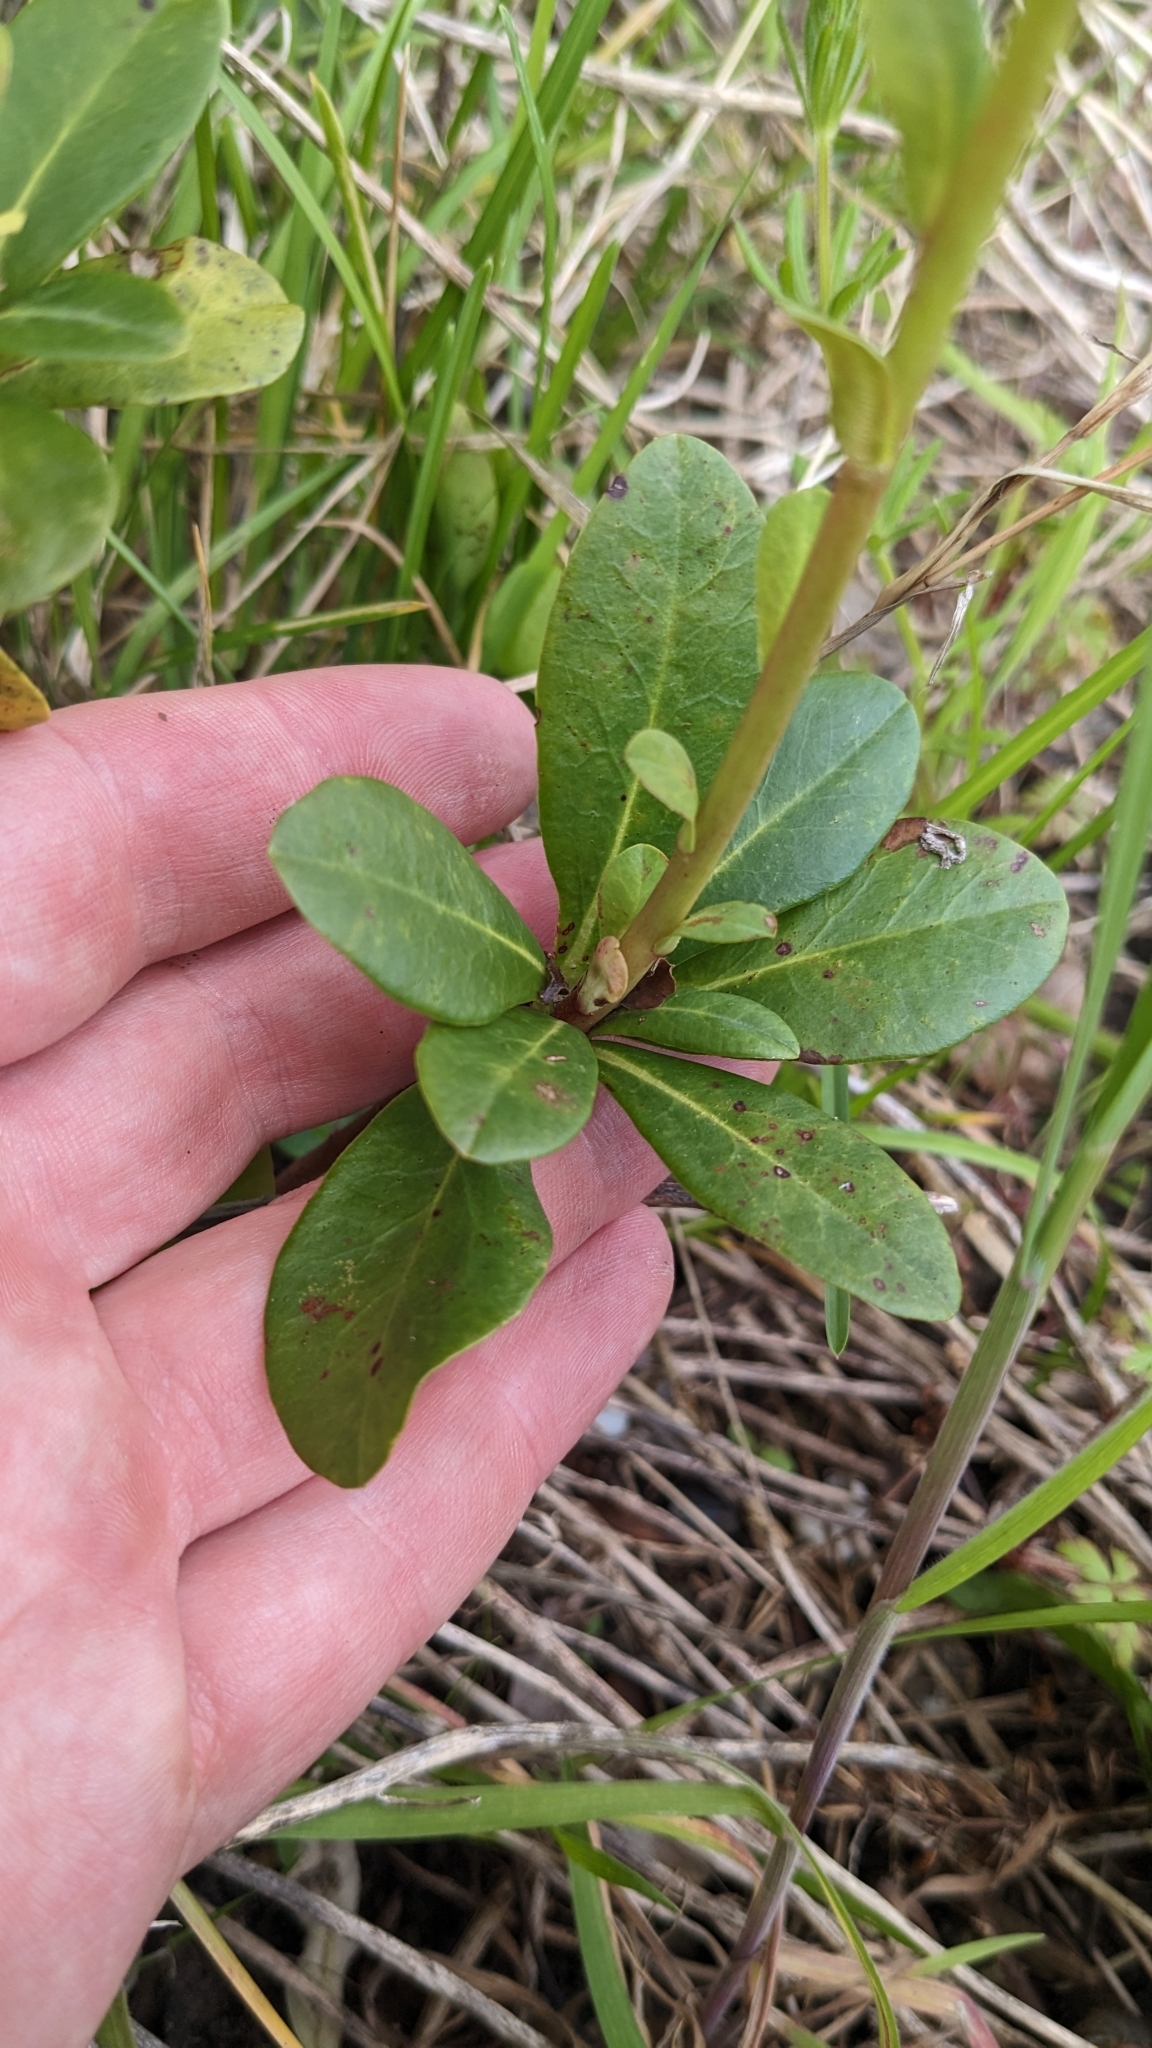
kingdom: Plantae
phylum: Tracheophyta
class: Magnoliopsida
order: Malpighiales
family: Euphorbiaceae
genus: Euphorbia
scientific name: Euphorbia amygdaloides
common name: Wood spurge
